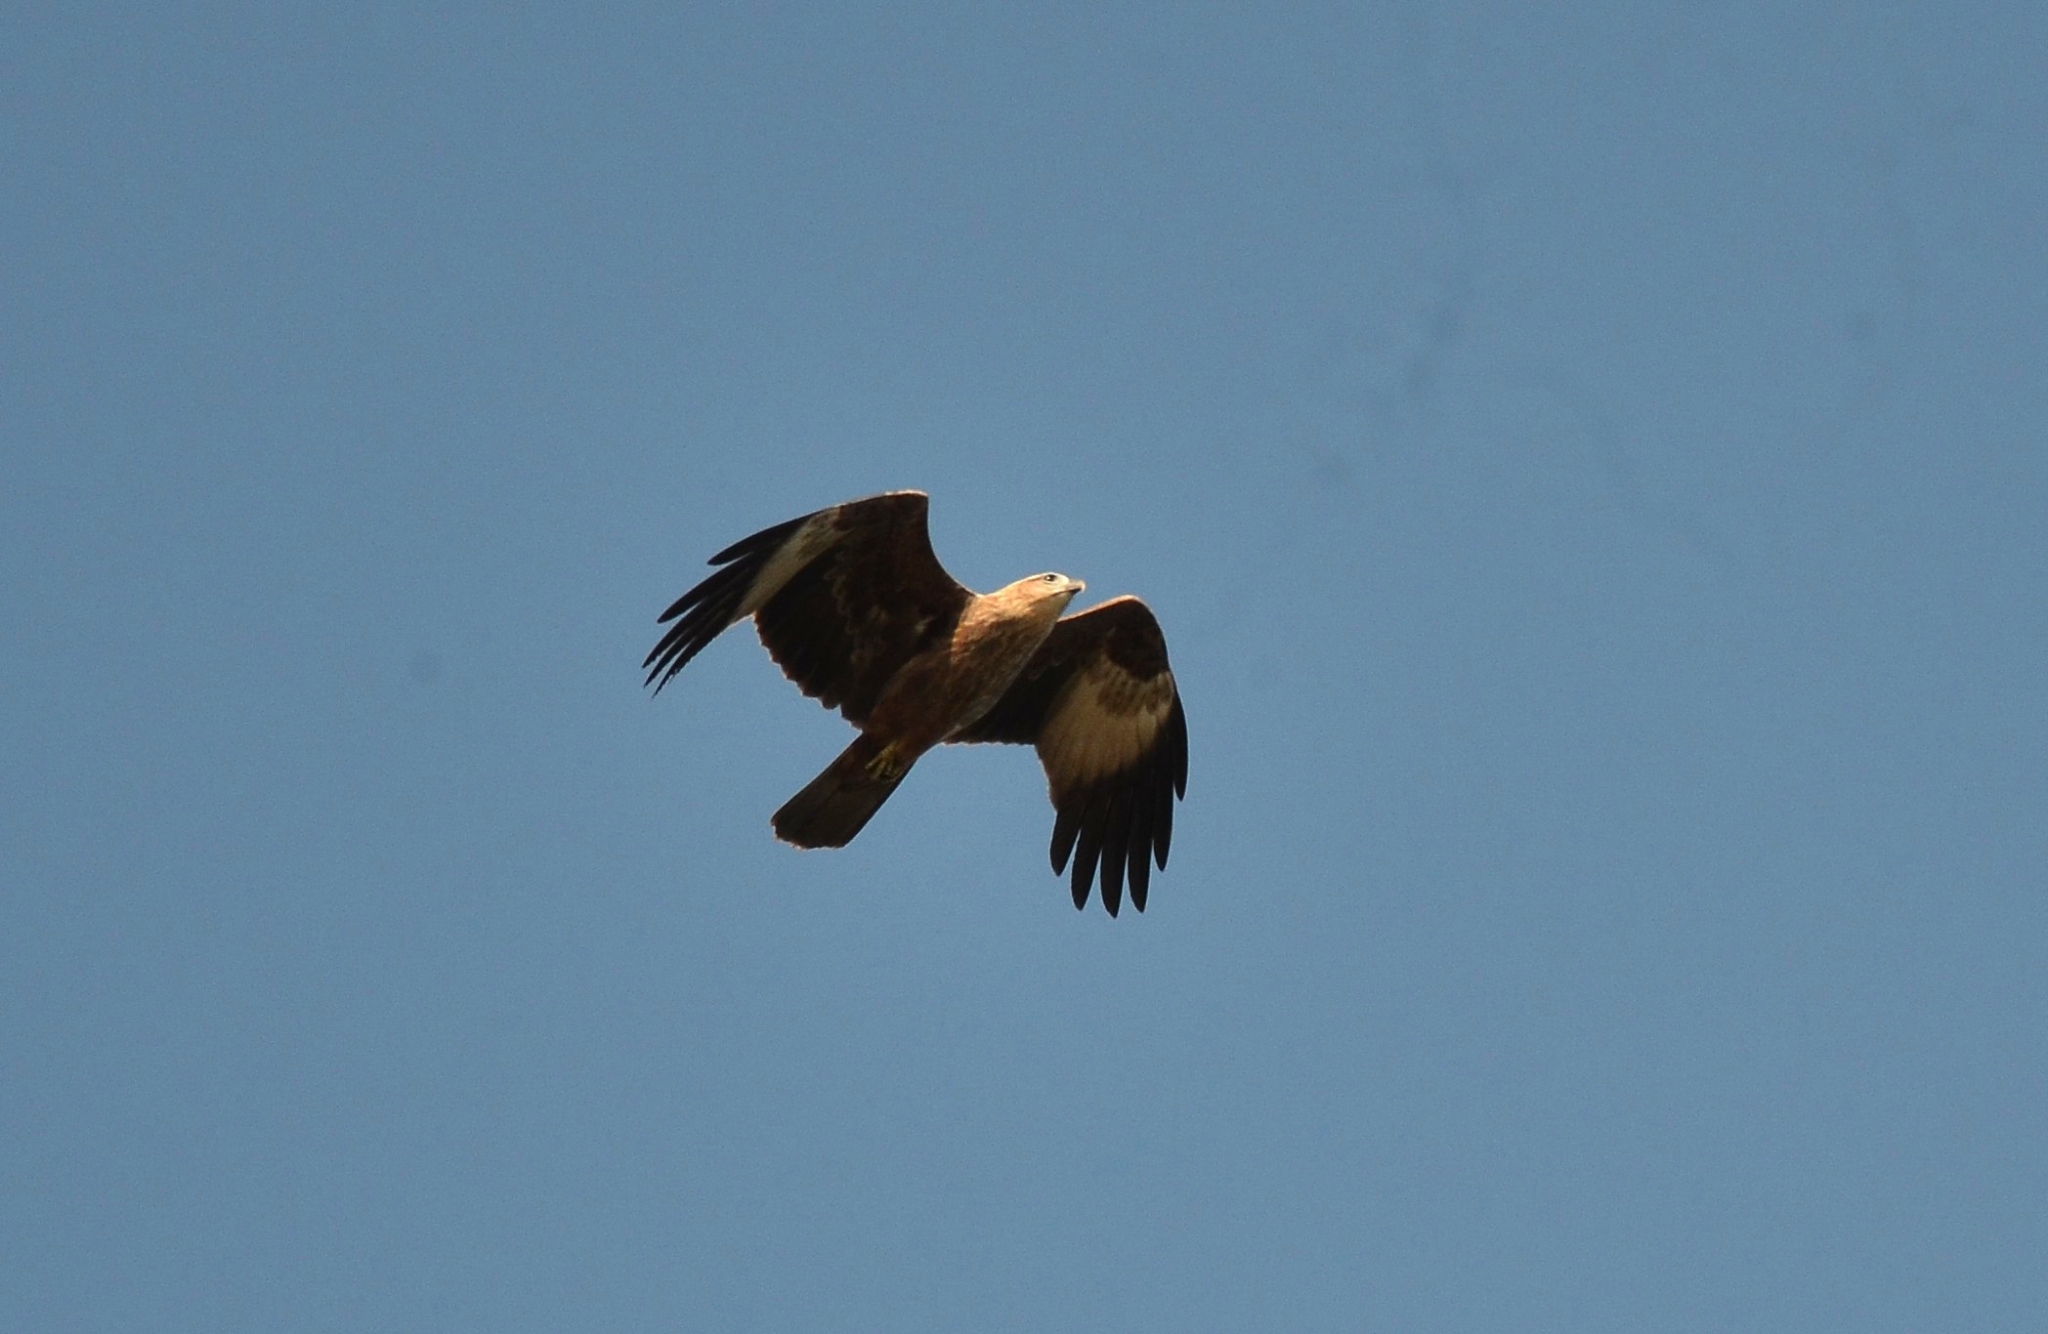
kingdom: Animalia
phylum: Chordata
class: Aves
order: Accipitriformes
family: Accipitridae
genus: Haliastur
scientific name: Haliastur indus
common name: Brahminy kite
